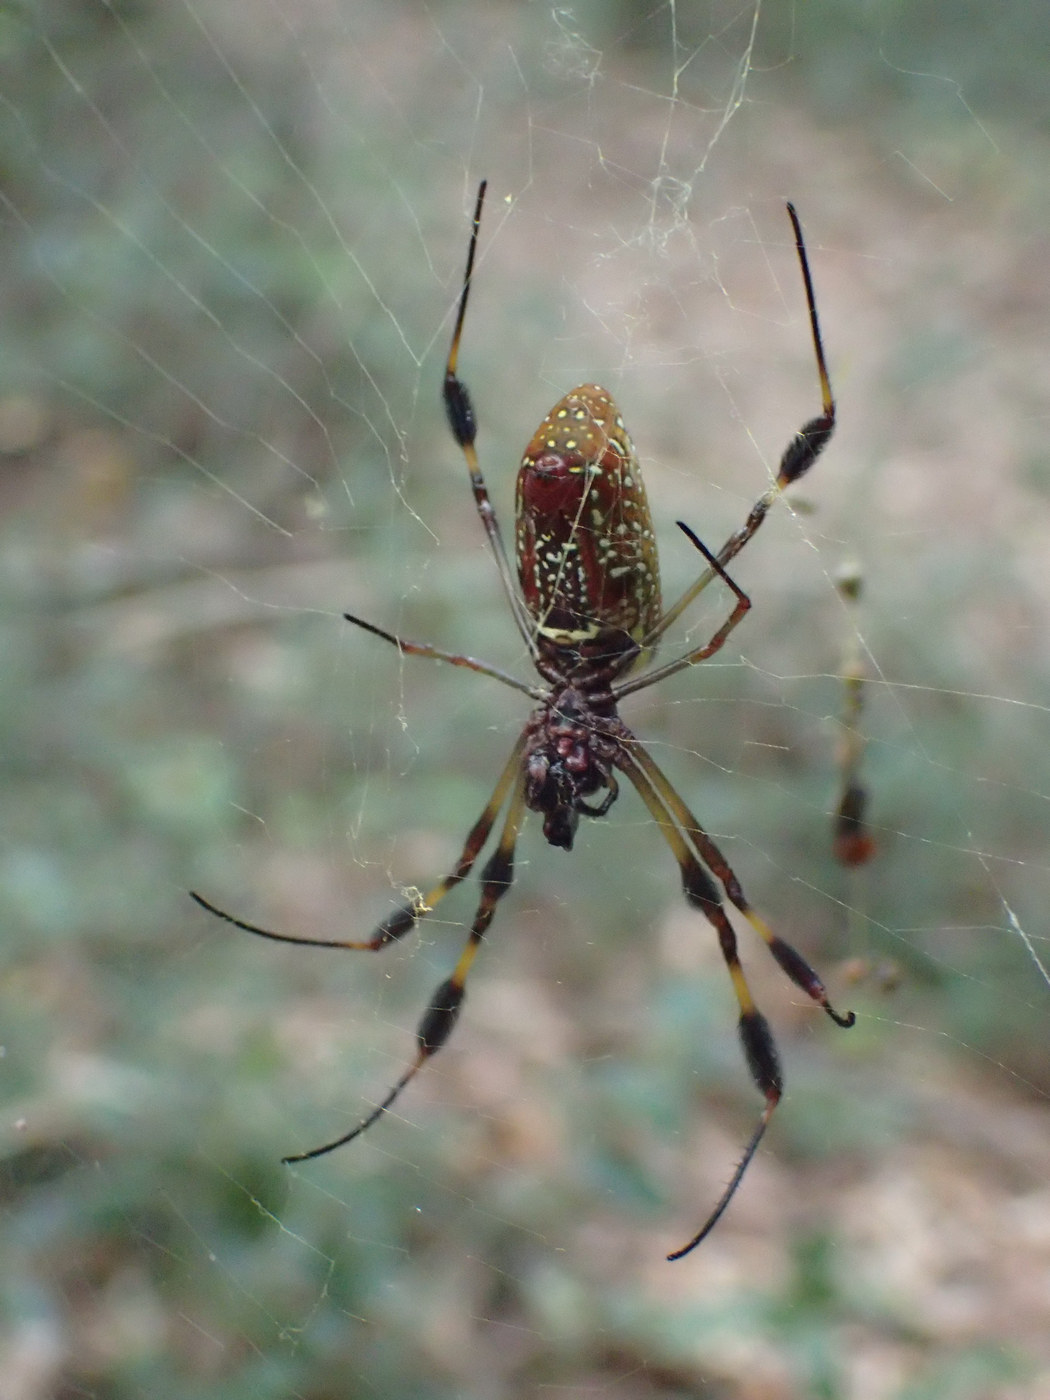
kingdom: Animalia
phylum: Arthropoda
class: Arachnida
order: Araneae
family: Araneidae
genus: Trichonephila
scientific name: Trichonephila clavipes
